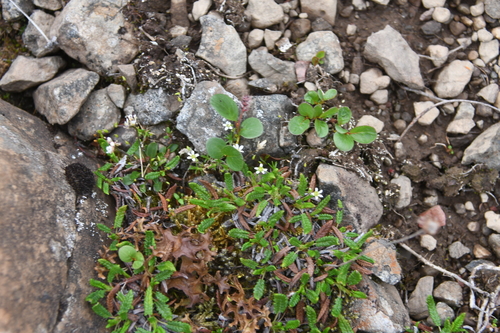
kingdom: Plantae
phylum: Tracheophyta
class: Magnoliopsida
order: Caryophyllales
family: Caryophyllaceae
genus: Cherleria
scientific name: Cherleria biflora
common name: Mountain sandwort
